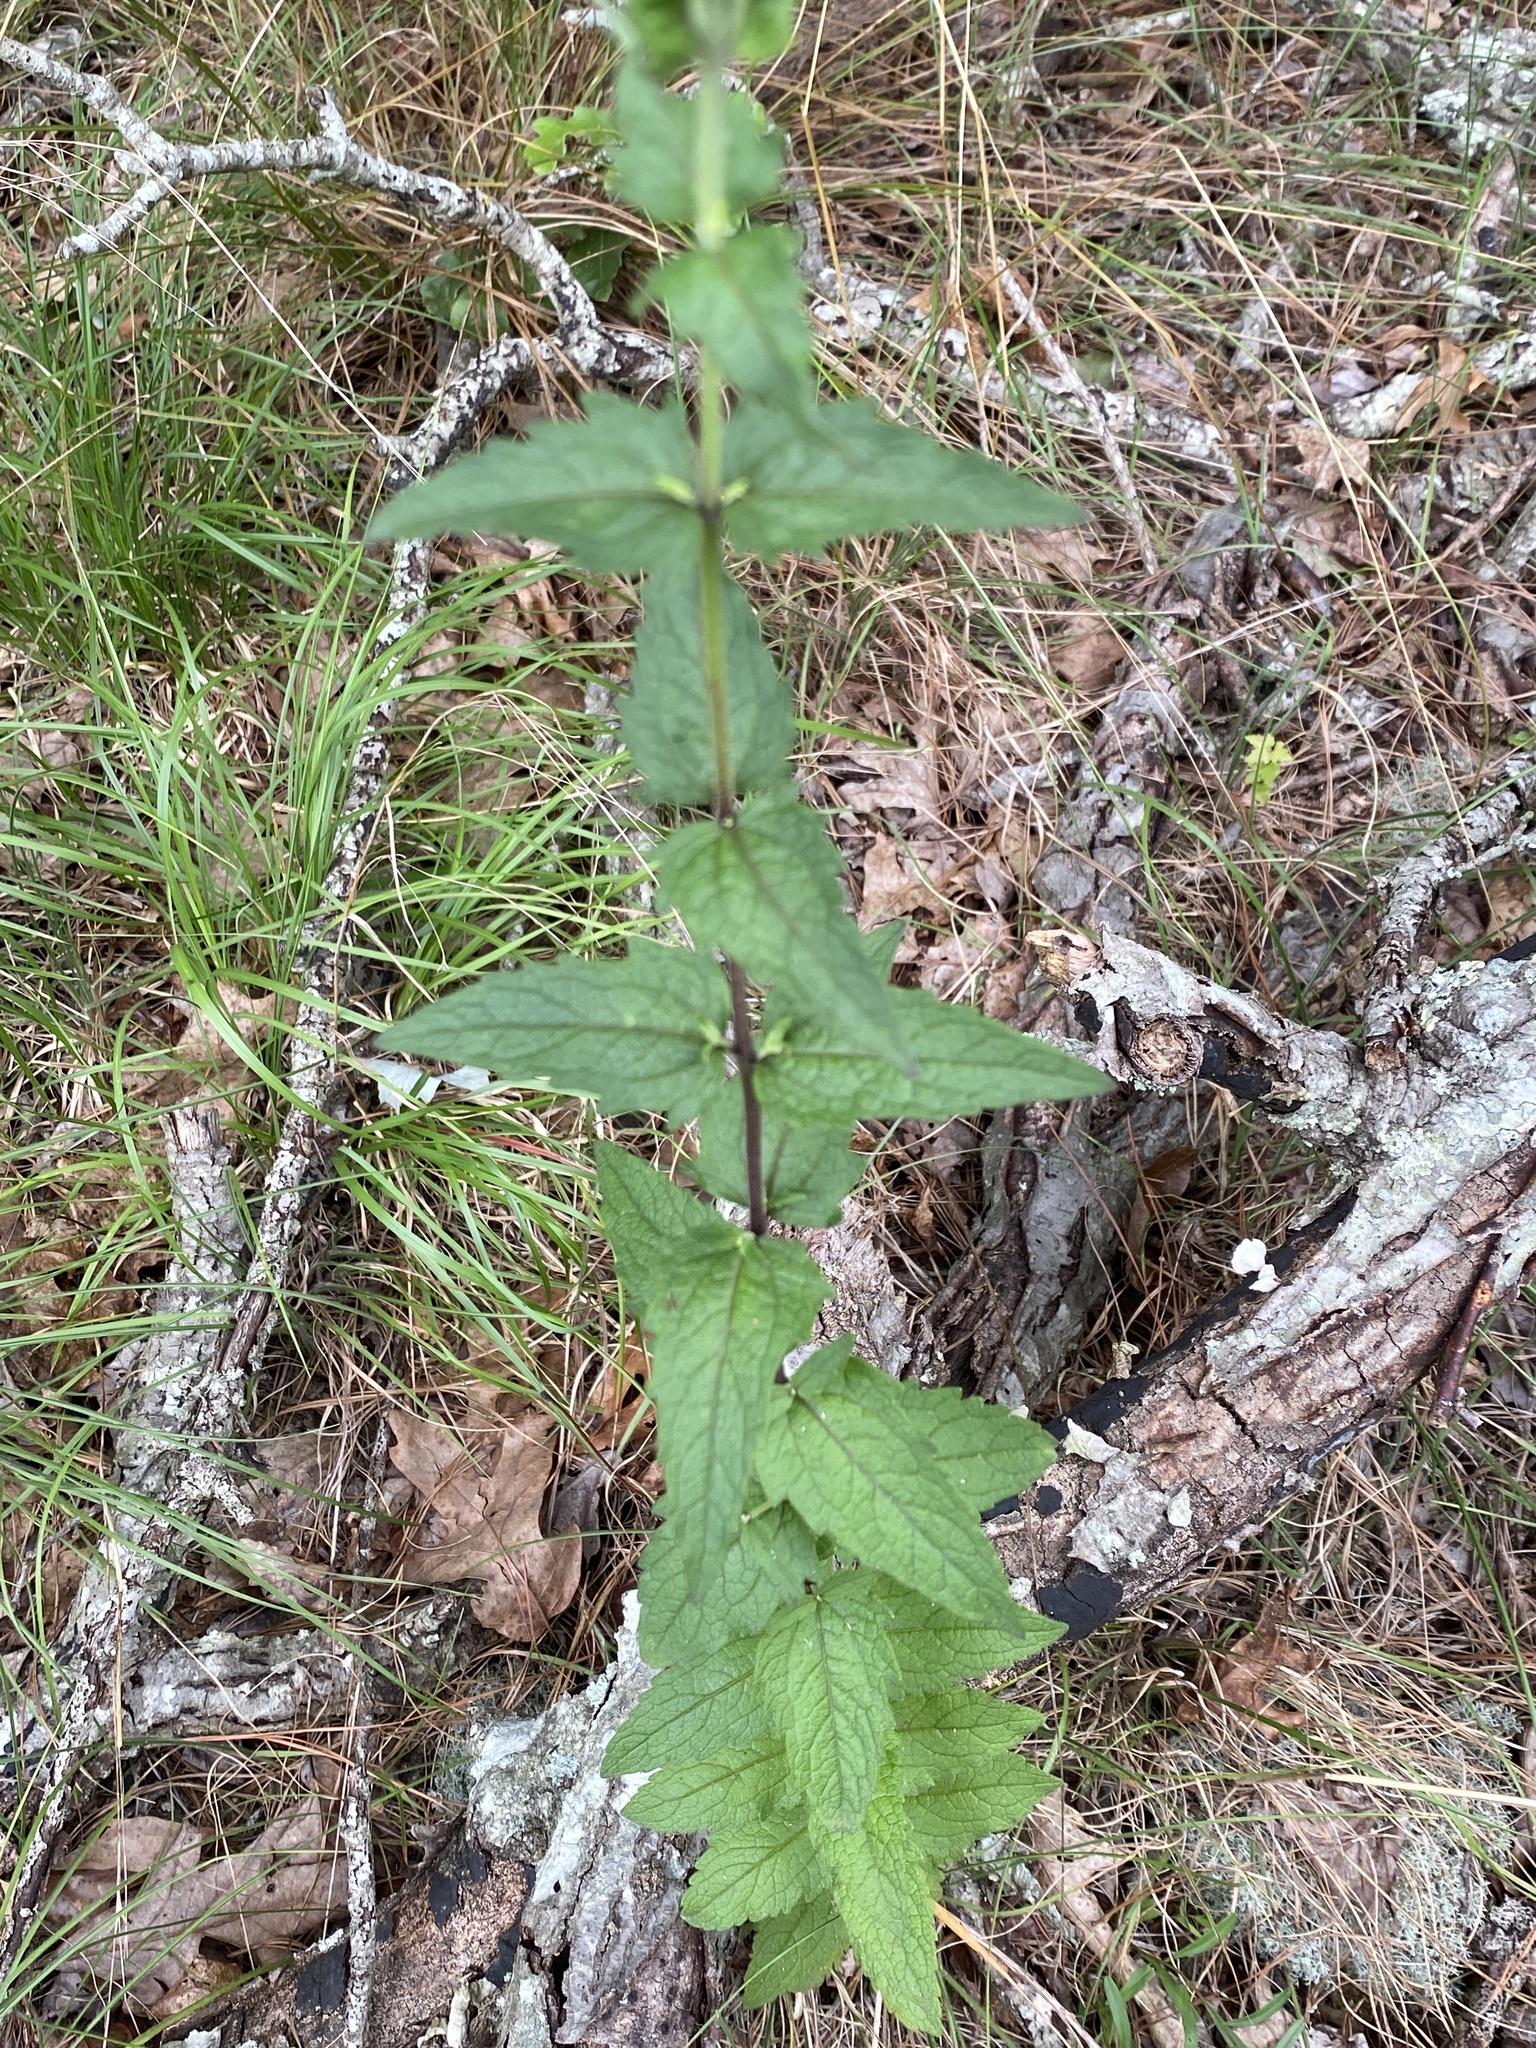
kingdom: Plantae
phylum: Tracheophyta
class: Magnoliopsida
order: Asterales
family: Asteraceae
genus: Eupatorium
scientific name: Eupatorium pilosum
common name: Rough boneset
